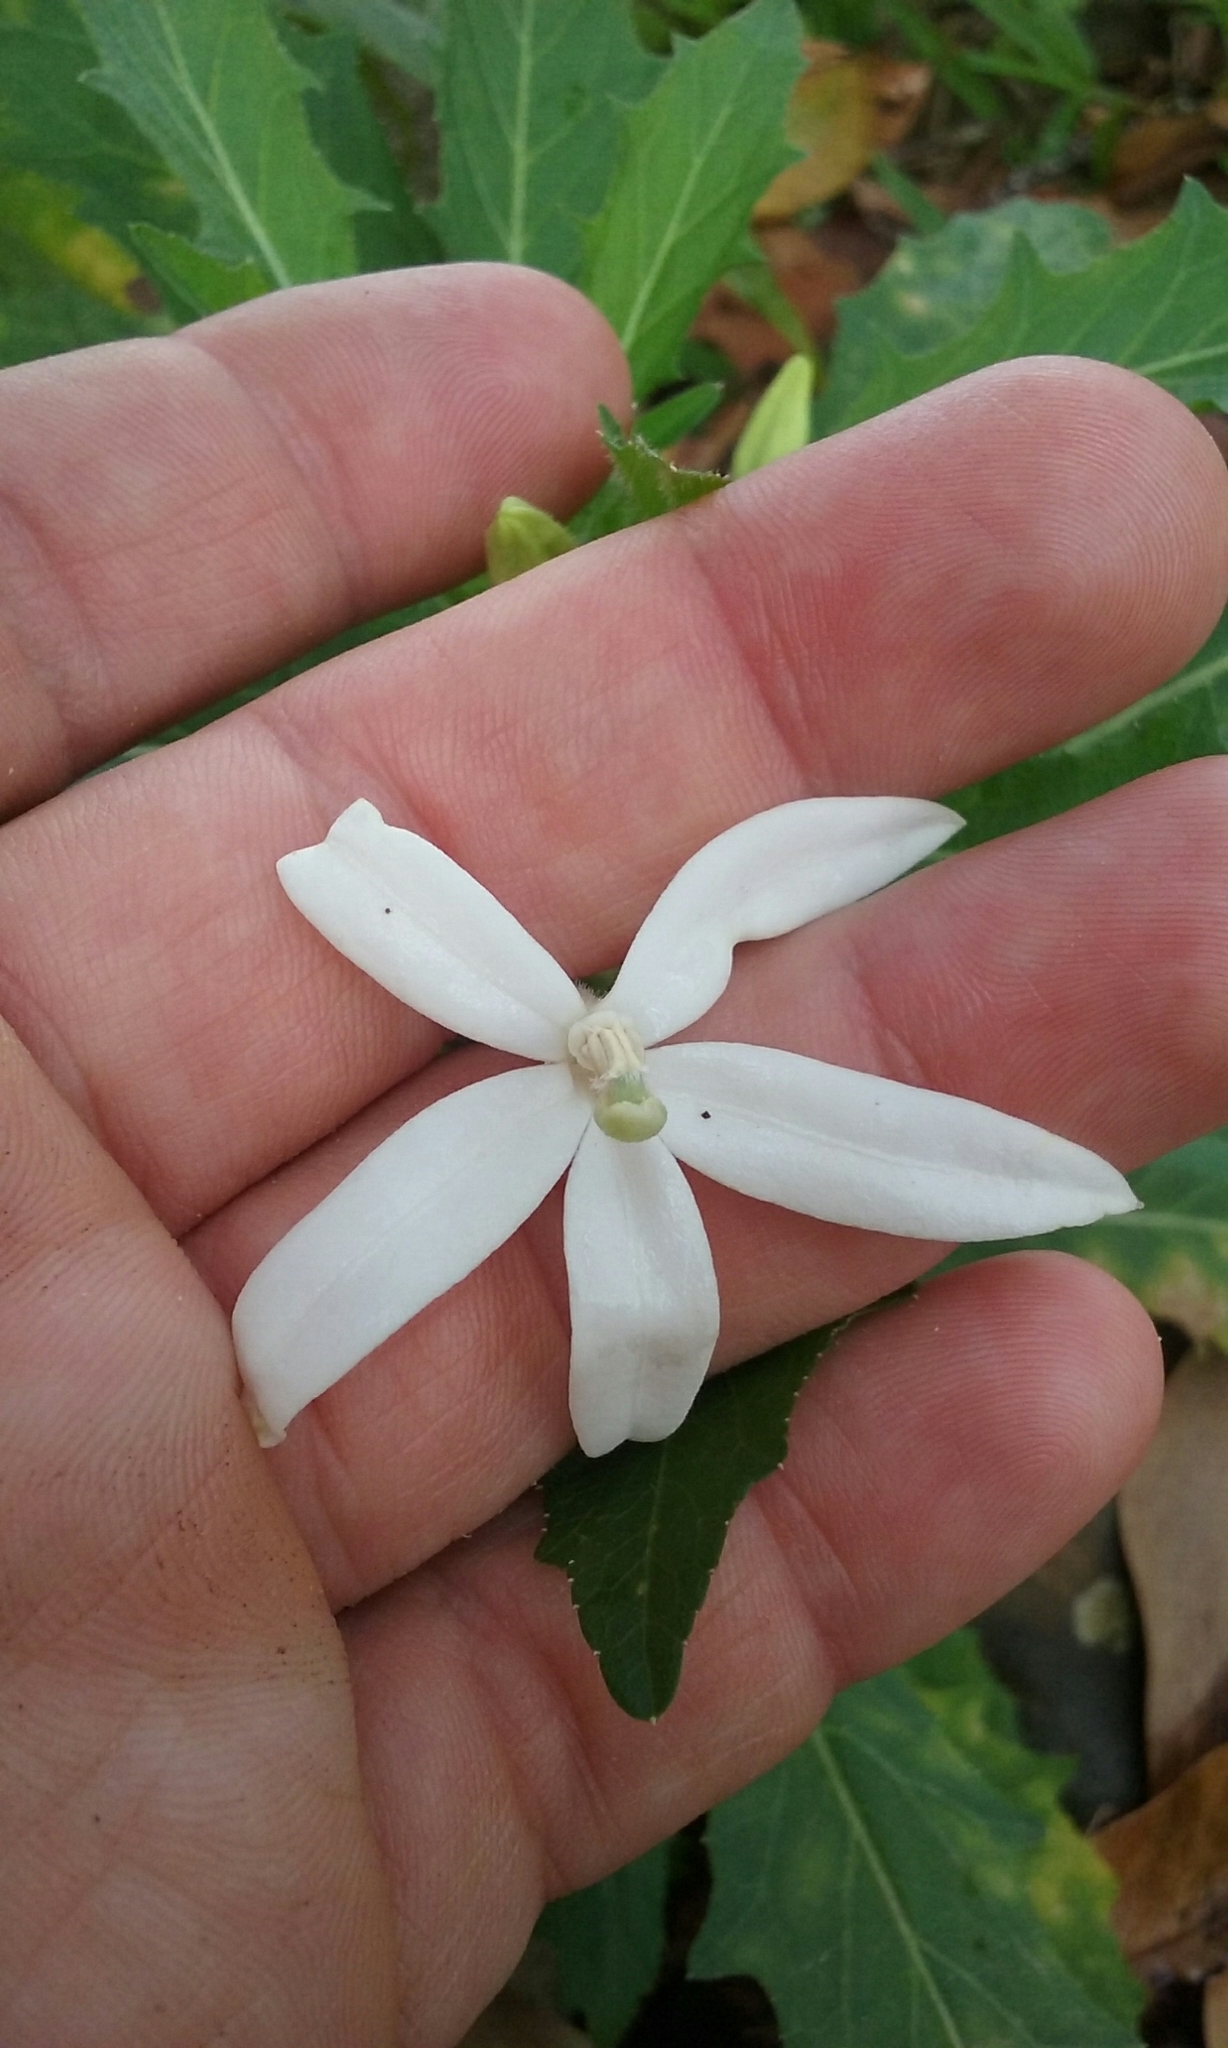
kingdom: Plantae
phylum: Tracheophyta
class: Magnoliopsida
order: Asterales
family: Campanulaceae
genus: Hippobroma
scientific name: Hippobroma longiflora
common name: Madamfate
